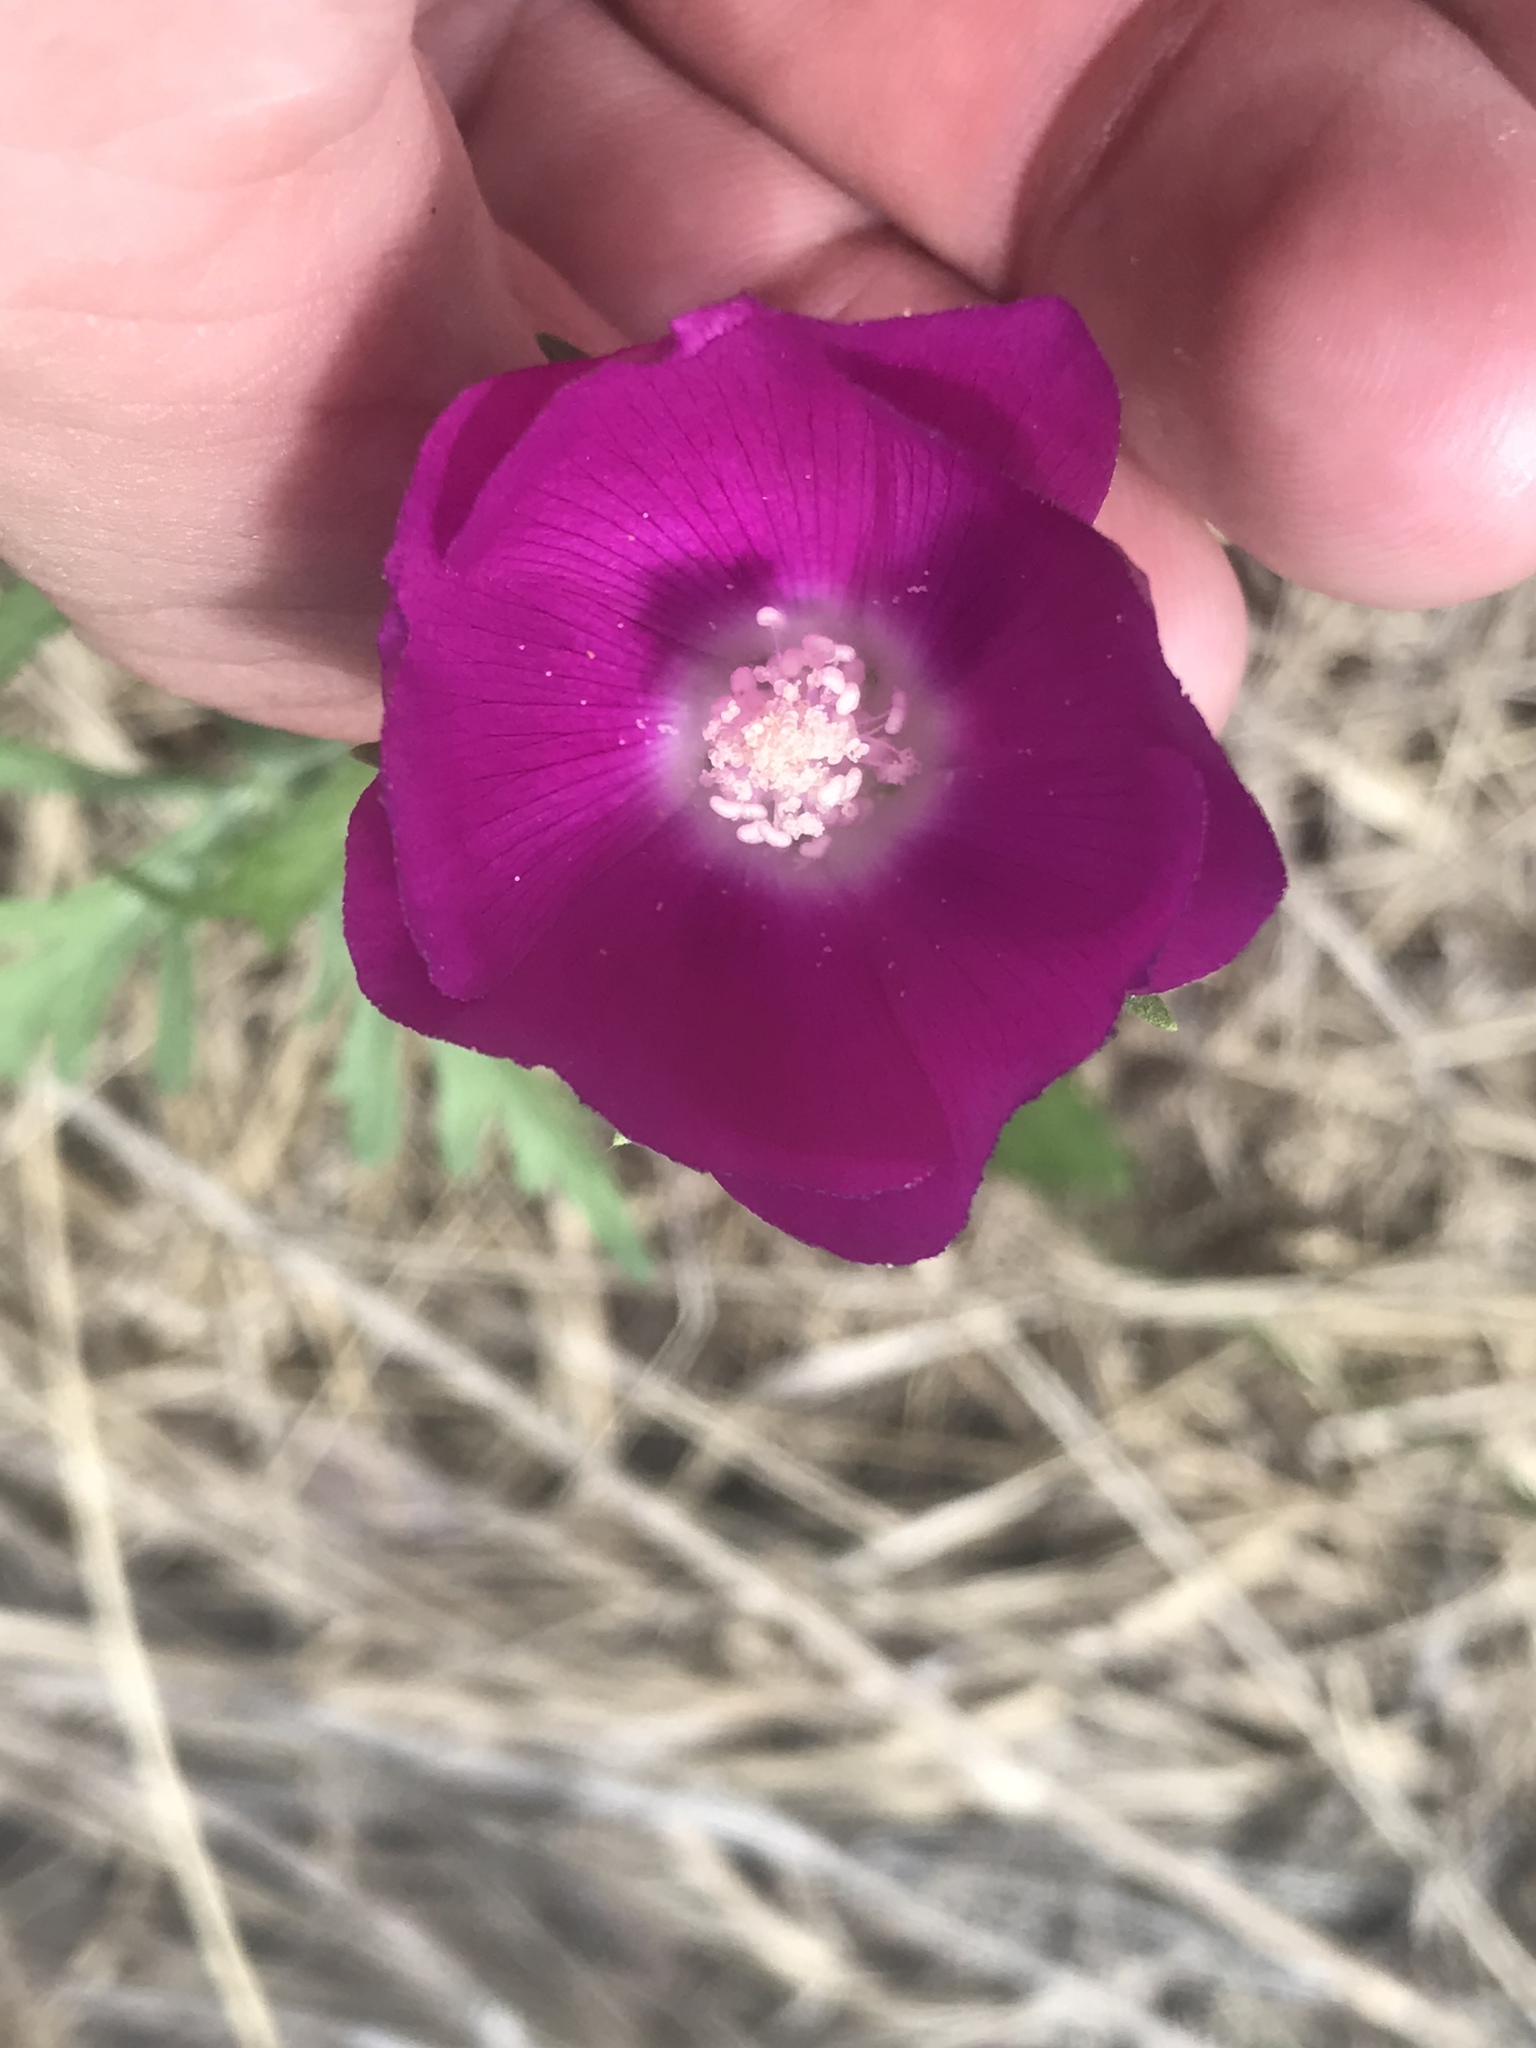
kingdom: Plantae
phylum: Tracheophyta
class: Magnoliopsida
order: Malvales
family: Malvaceae
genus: Callirhoe
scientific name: Callirhoe involucrata
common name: Purple poppy-mallow
